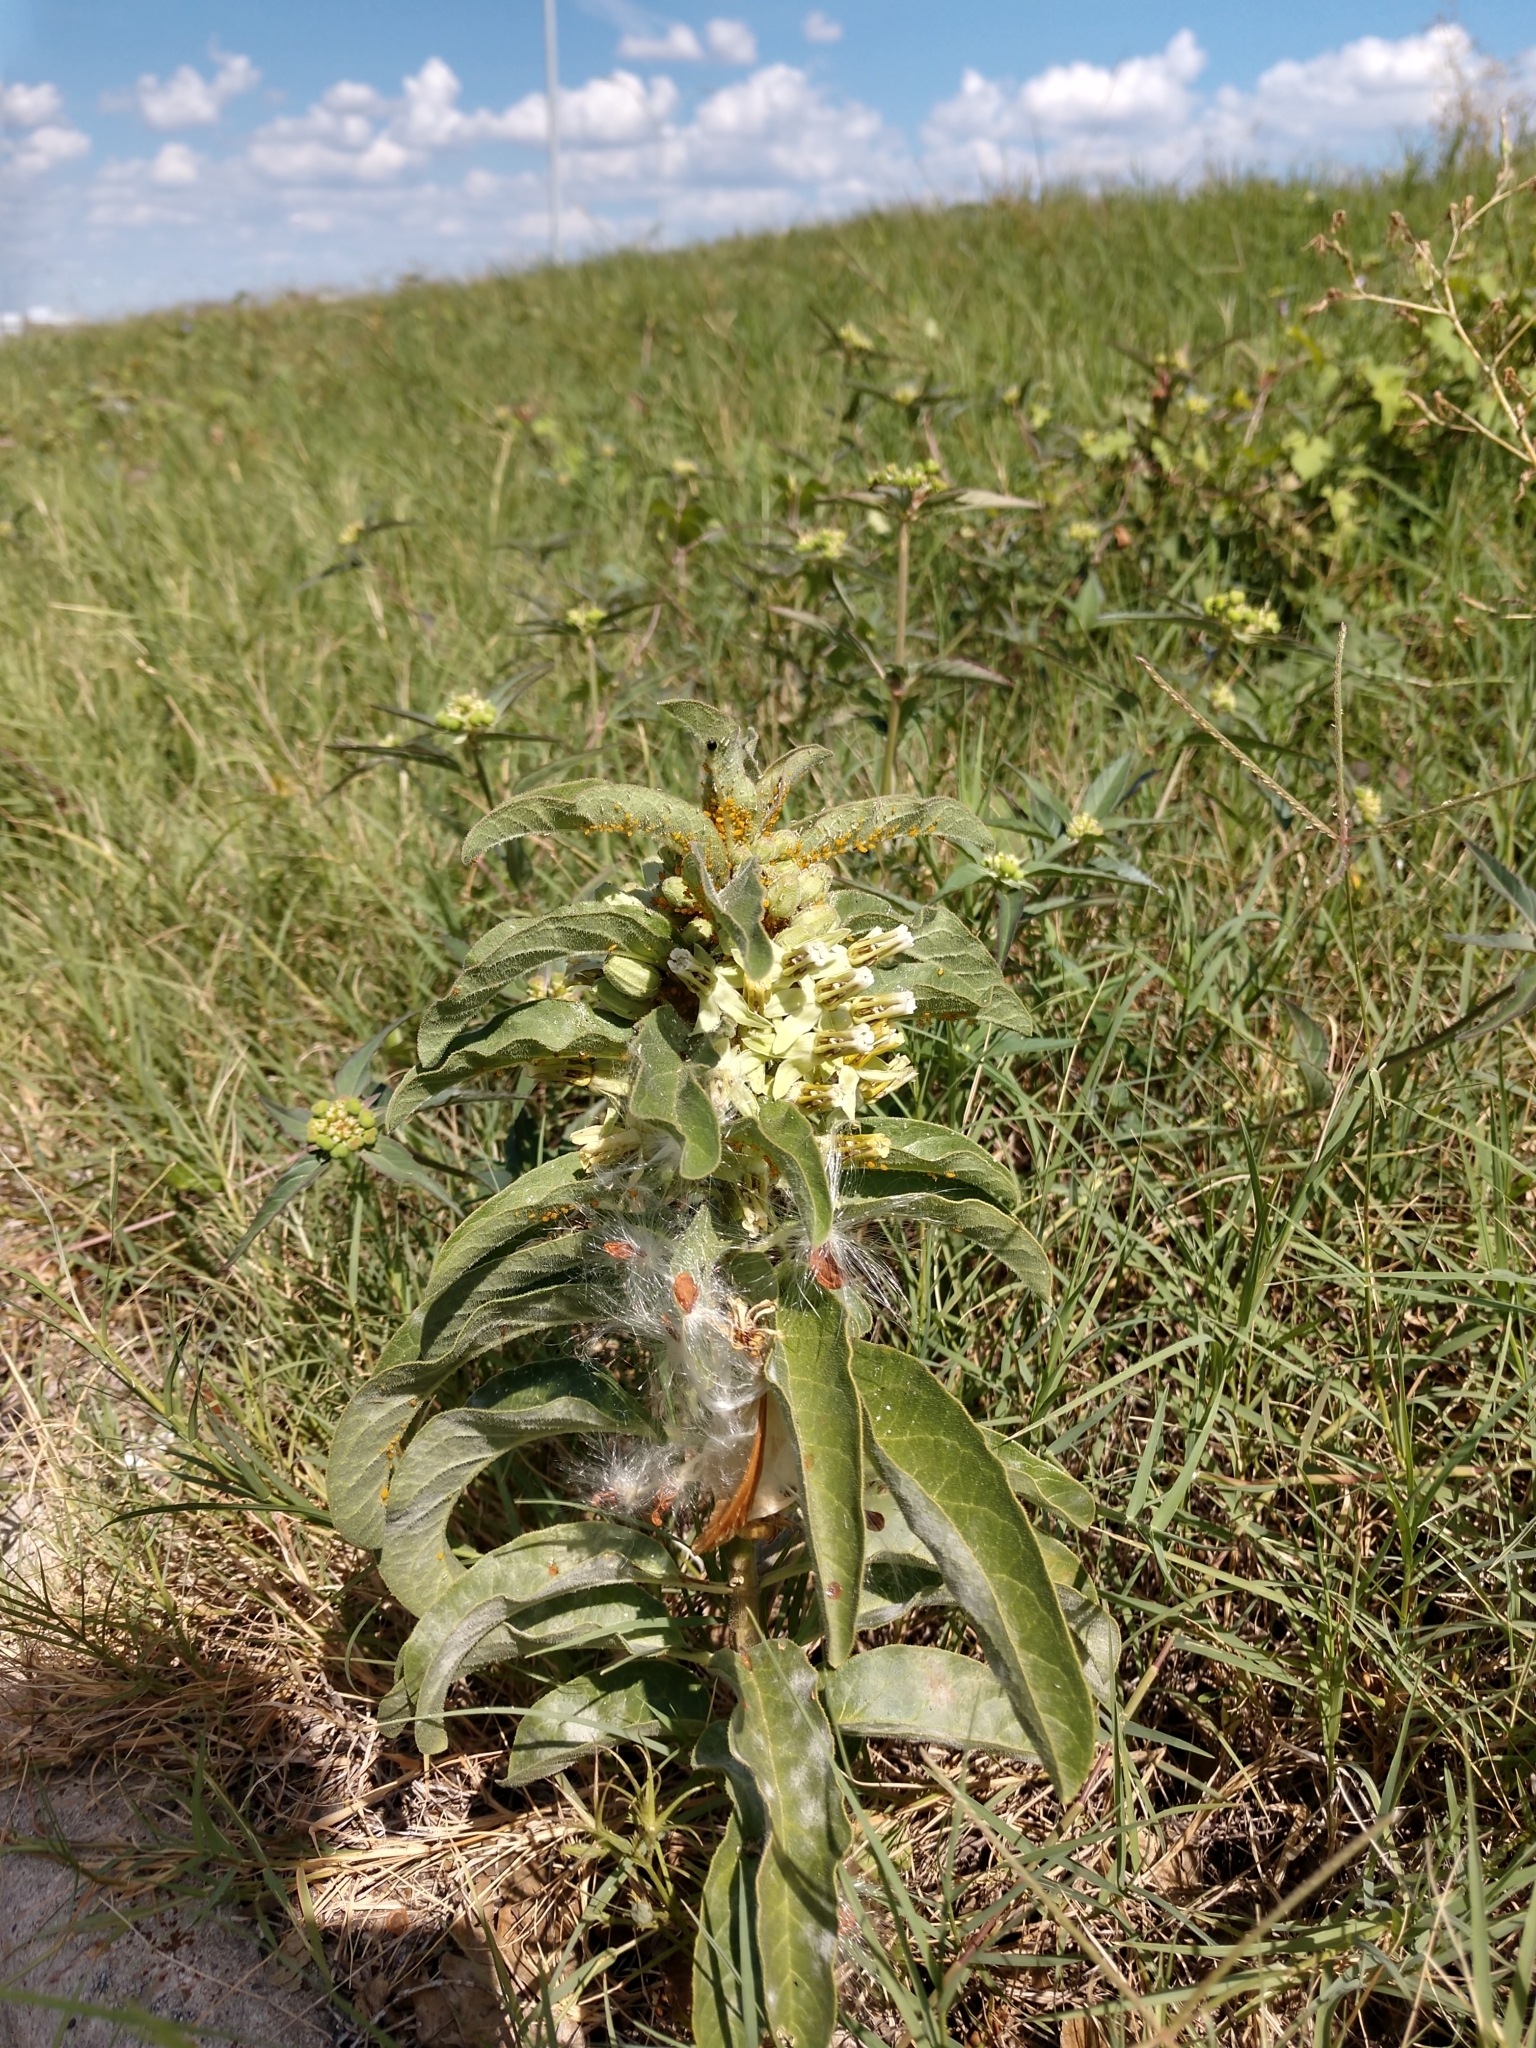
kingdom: Plantae
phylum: Tracheophyta
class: Magnoliopsida
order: Gentianales
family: Apocynaceae
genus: Asclepias
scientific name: Asclepias oenotheroides
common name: Zizotes milkweed
